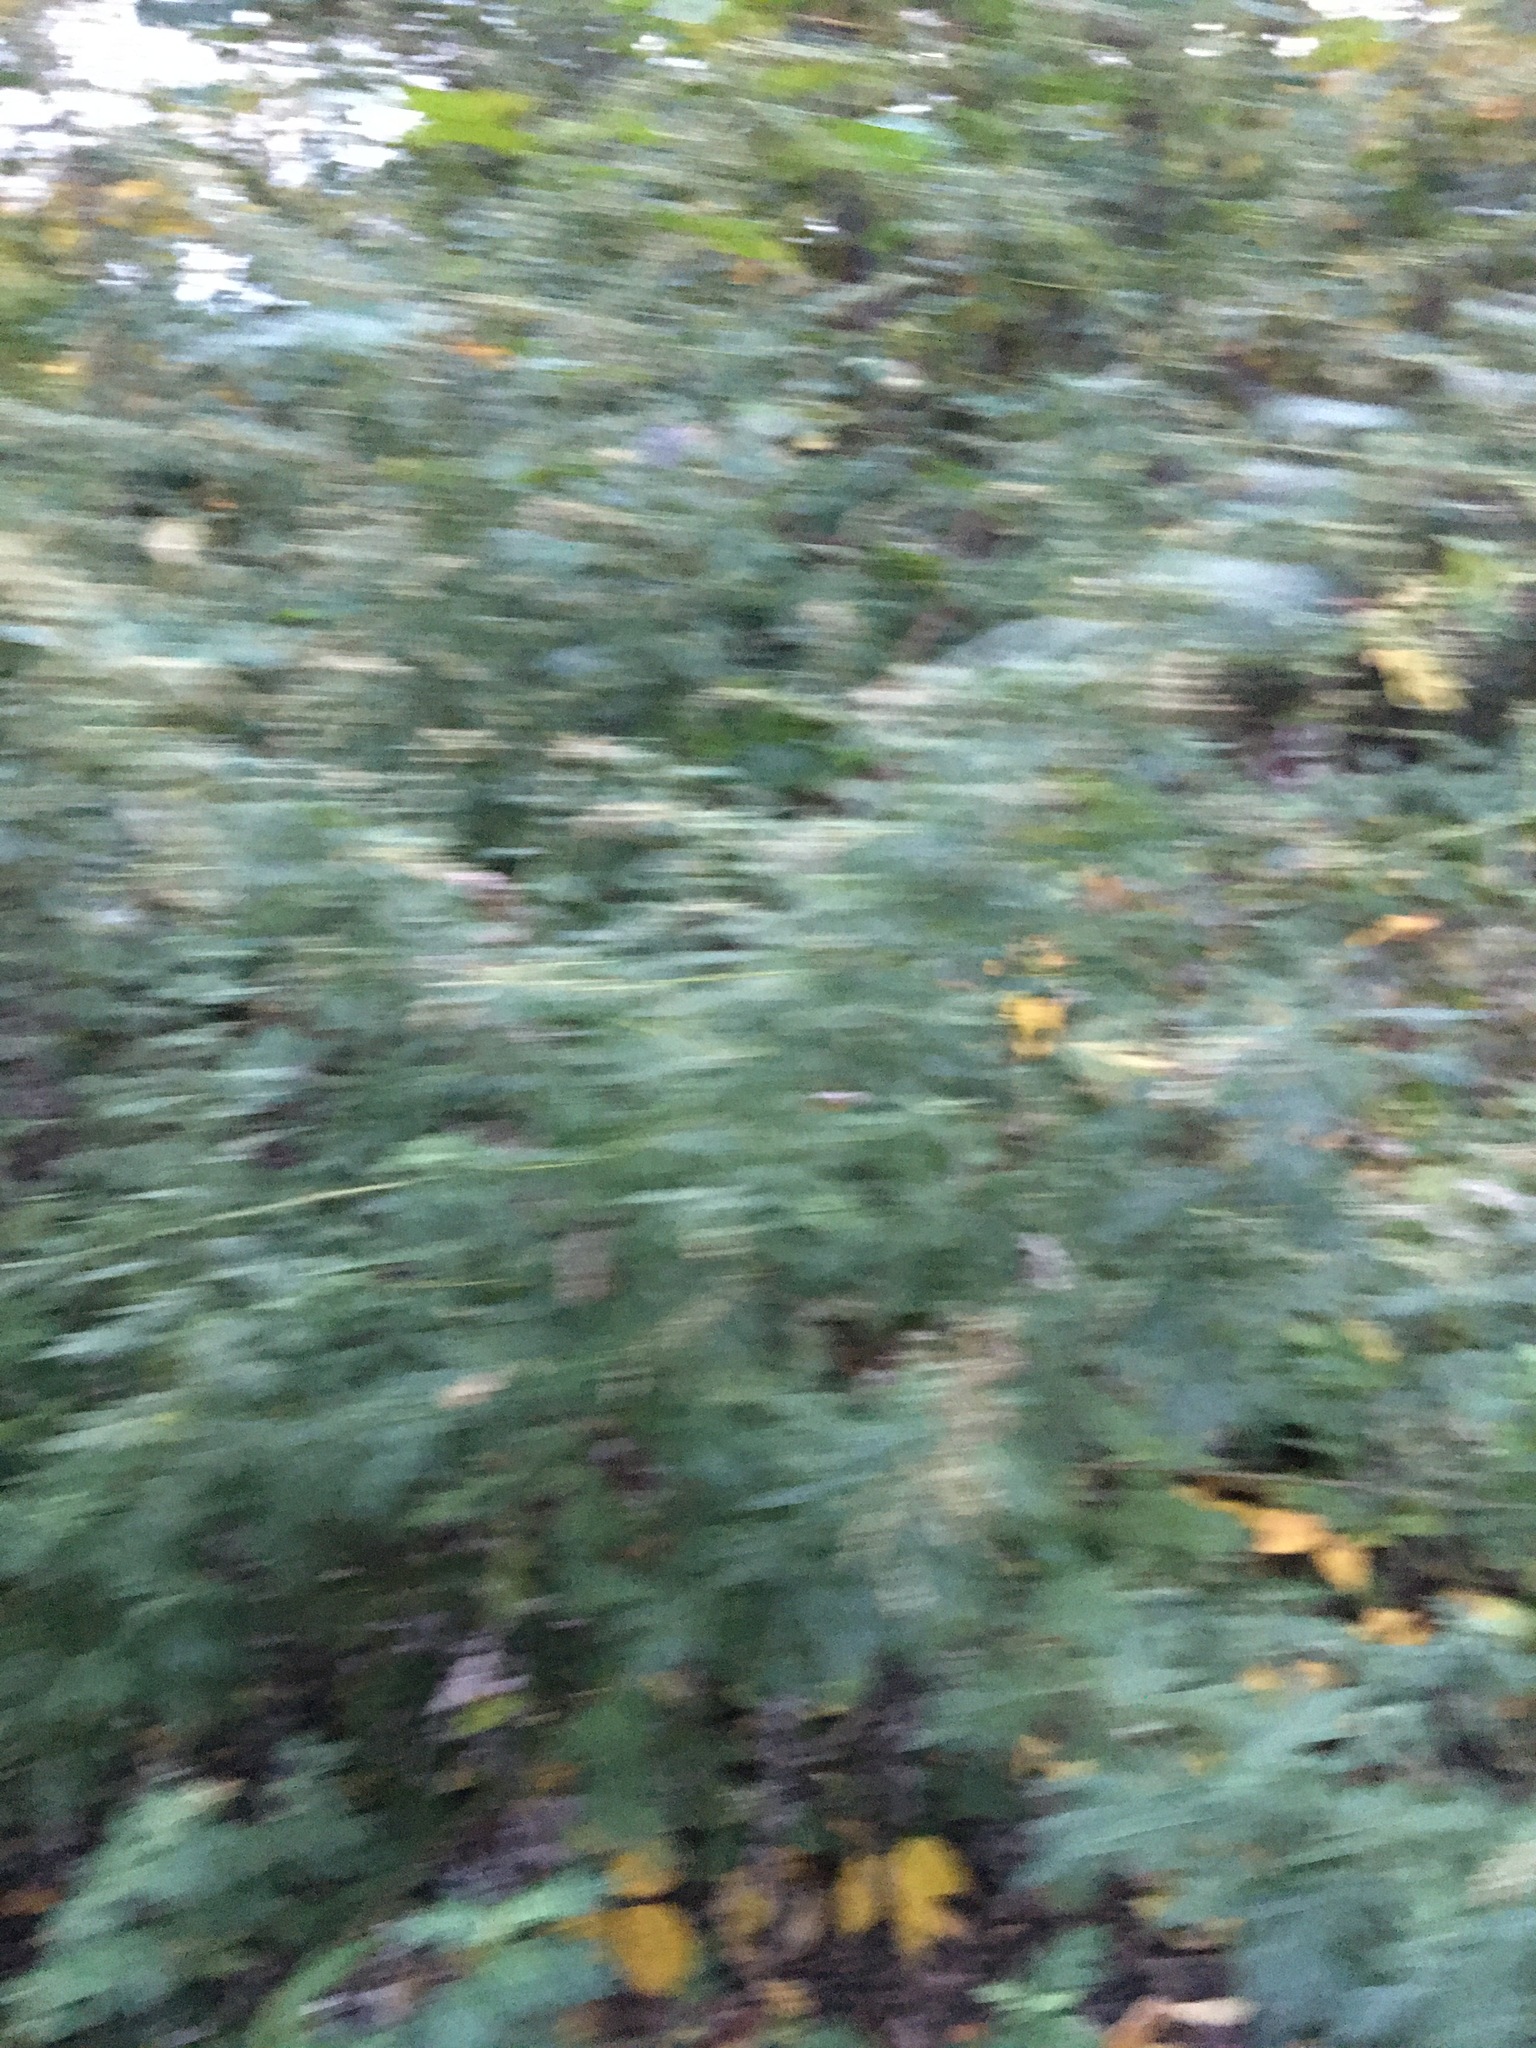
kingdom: Plantae
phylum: Tracheophyta
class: Magnoliopsida
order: Asterales
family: Asteraceae
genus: Artemisia
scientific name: Artemisia vulgaris
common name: Mugwort
